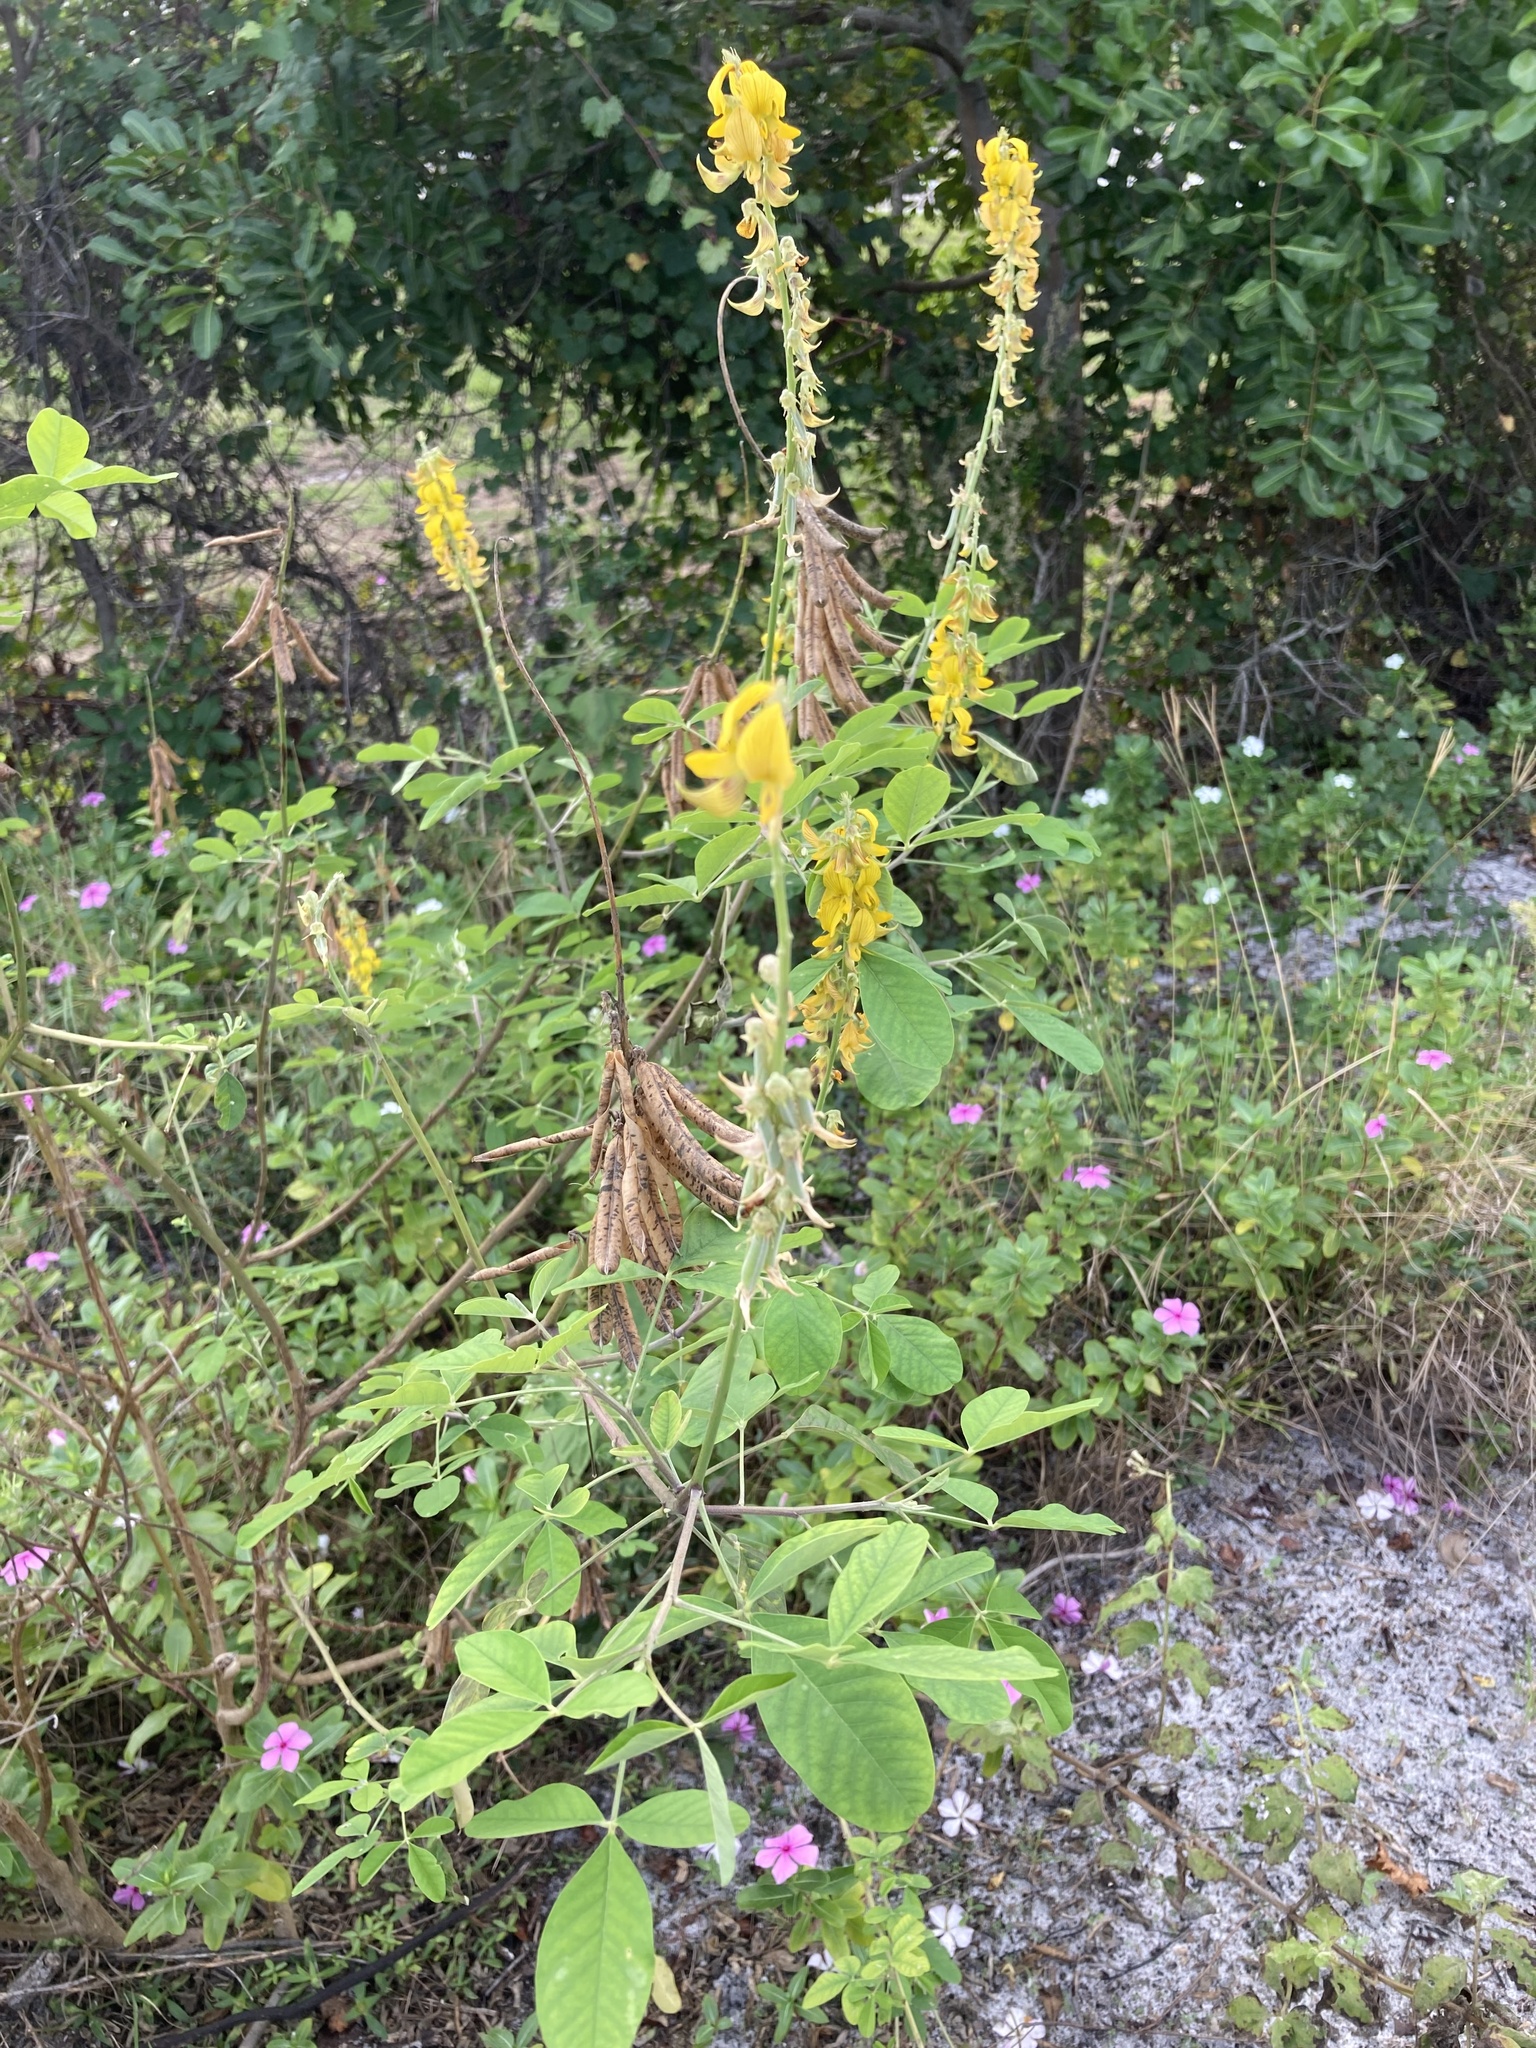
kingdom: Plantae
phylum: Tracheophyta
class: Magnoliopsida
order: Fabales
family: Fabaceae
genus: Crotalaria
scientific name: Crotalaria pallida
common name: Smooth rattlebox
